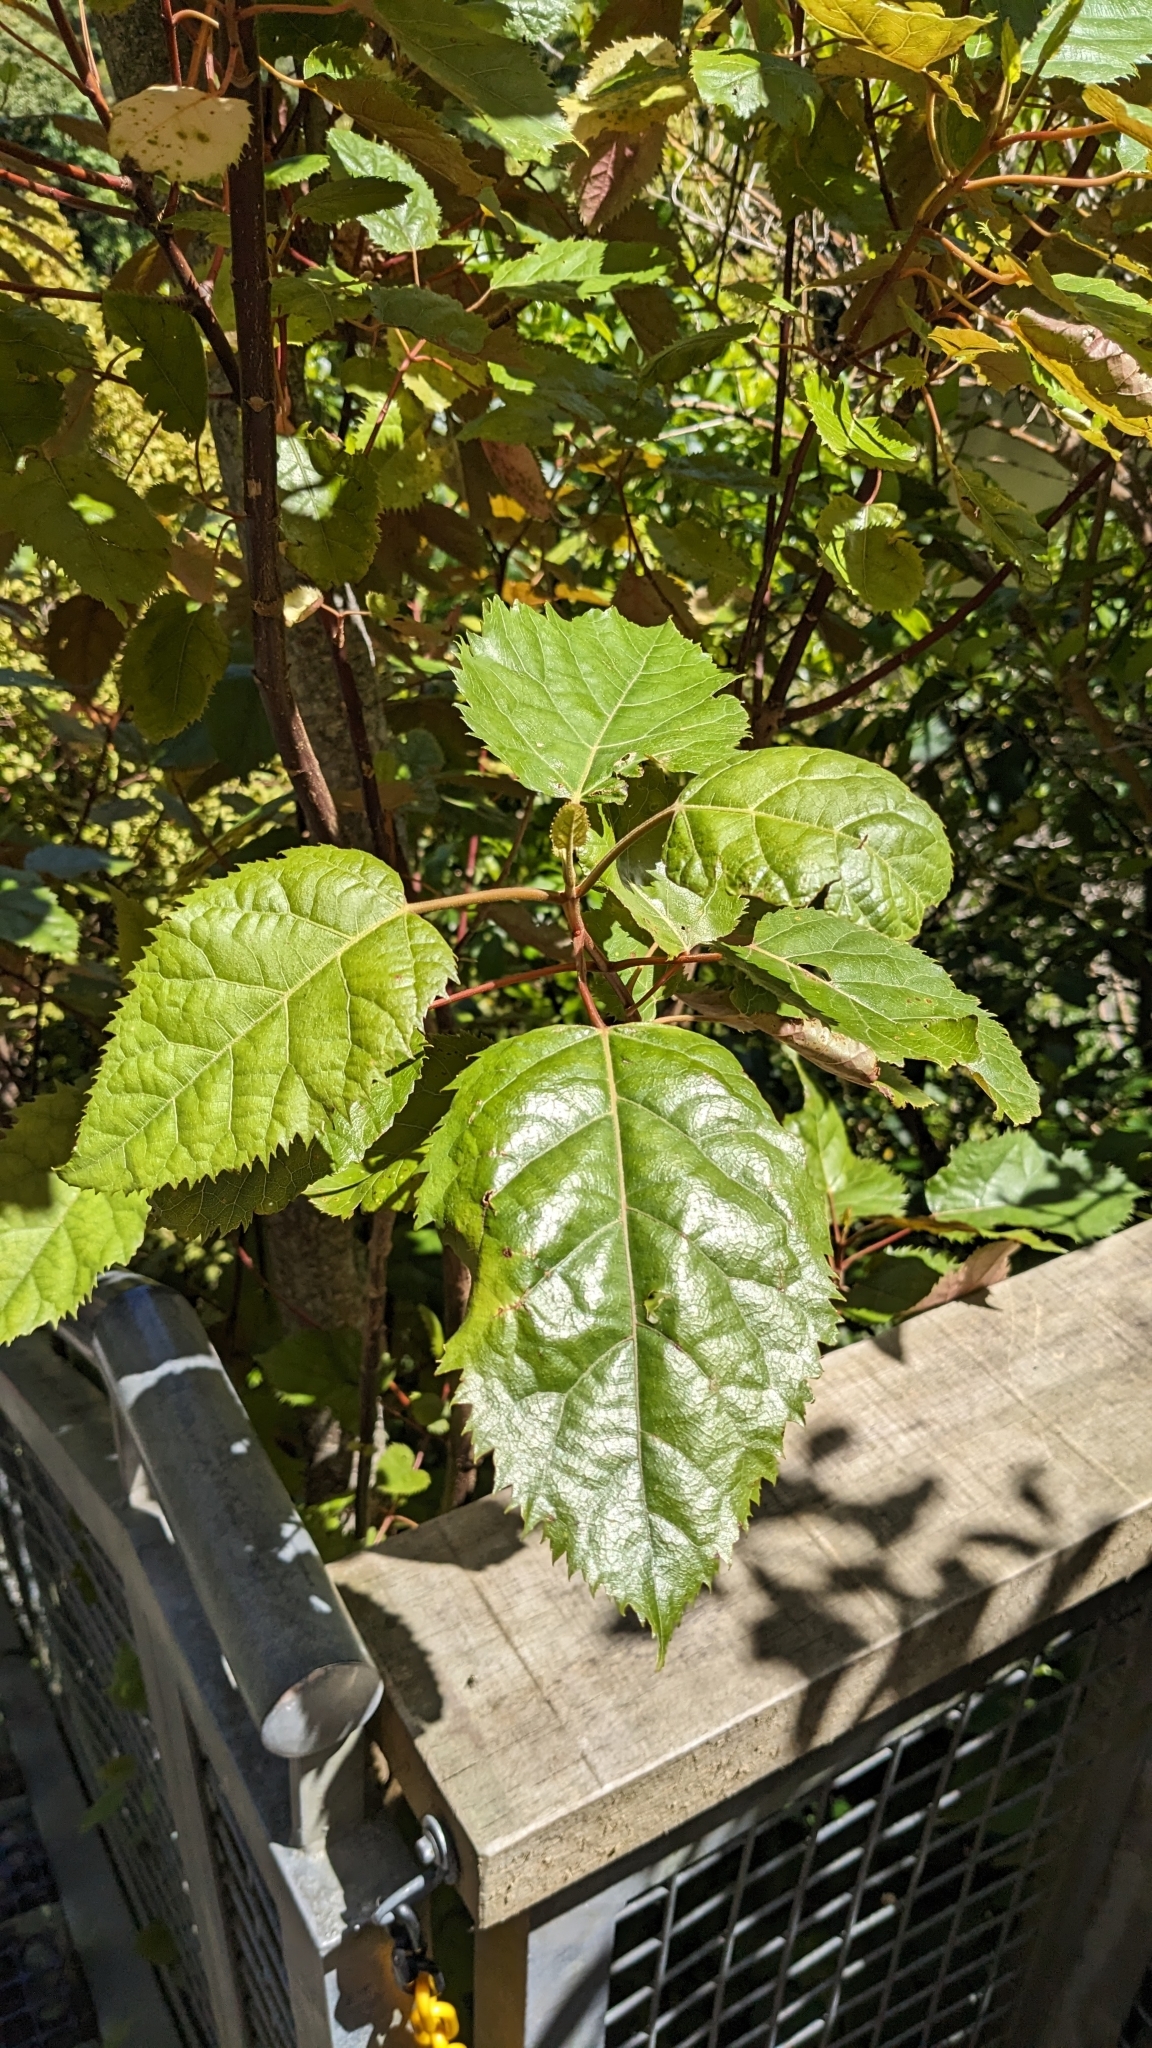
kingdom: Plantae
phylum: Tracheophyta
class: Magnoliopsida
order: Oxalidales
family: Elaeocarpaceae
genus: Aristotelia
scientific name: Aristotelia serrata
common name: New zealand wineberry
